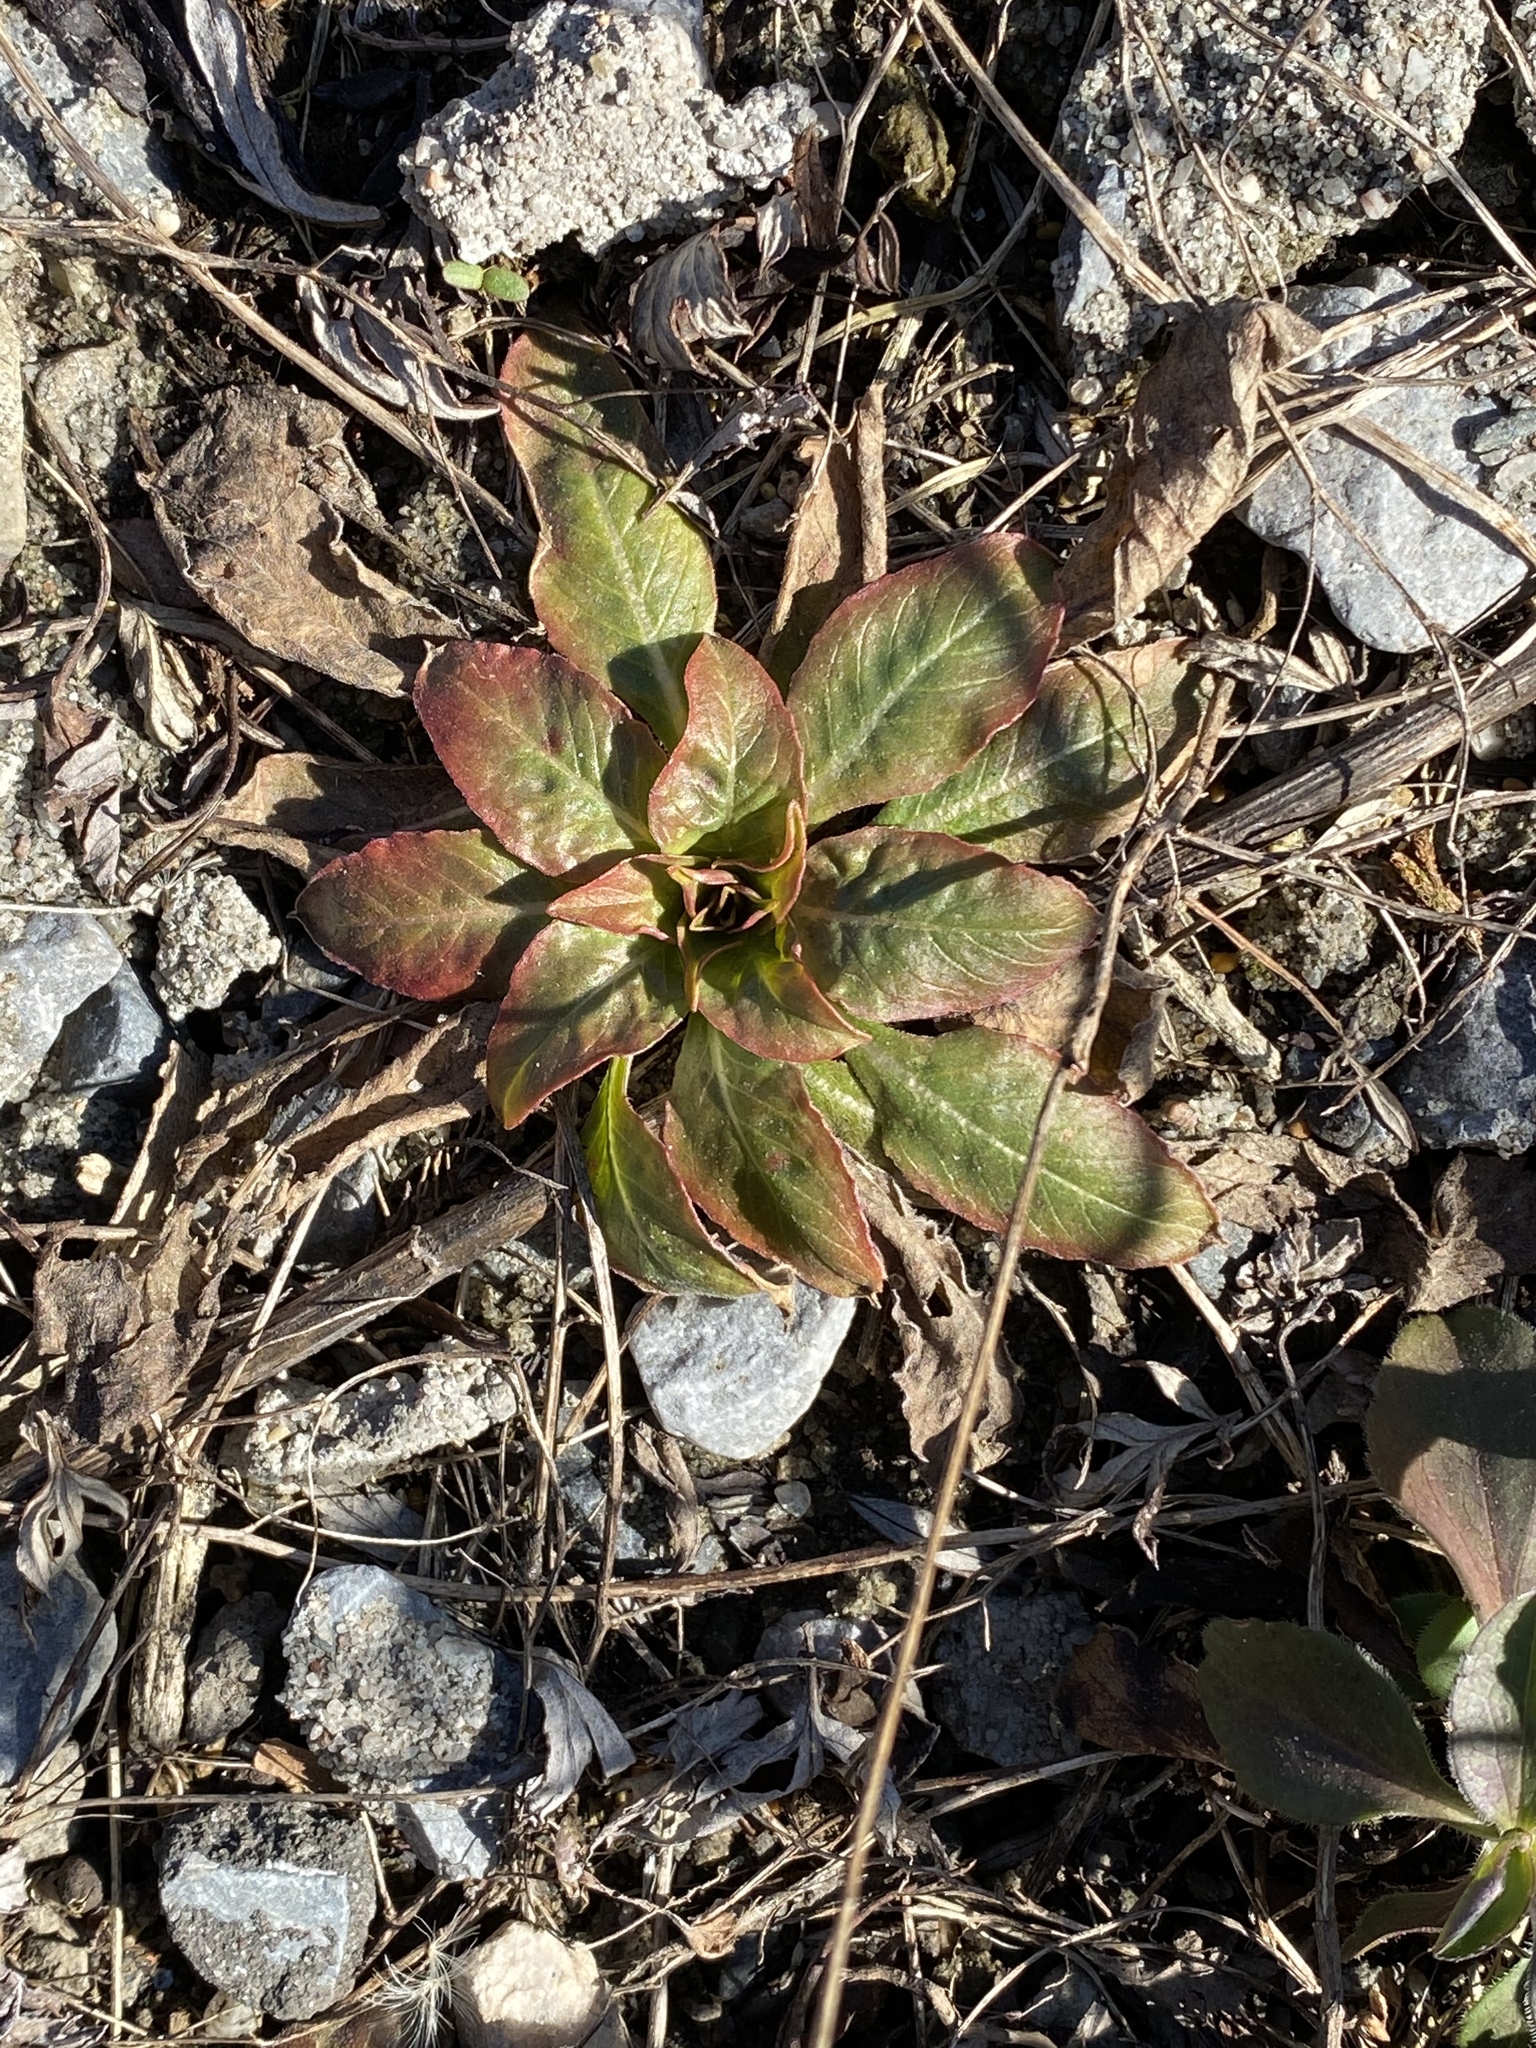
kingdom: Plantae
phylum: Tracheophyta
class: Magnoliopsida
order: Myrtales
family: Onagraceae
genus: Oenothera
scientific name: Oenothera biennis
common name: Common evening-primrose
